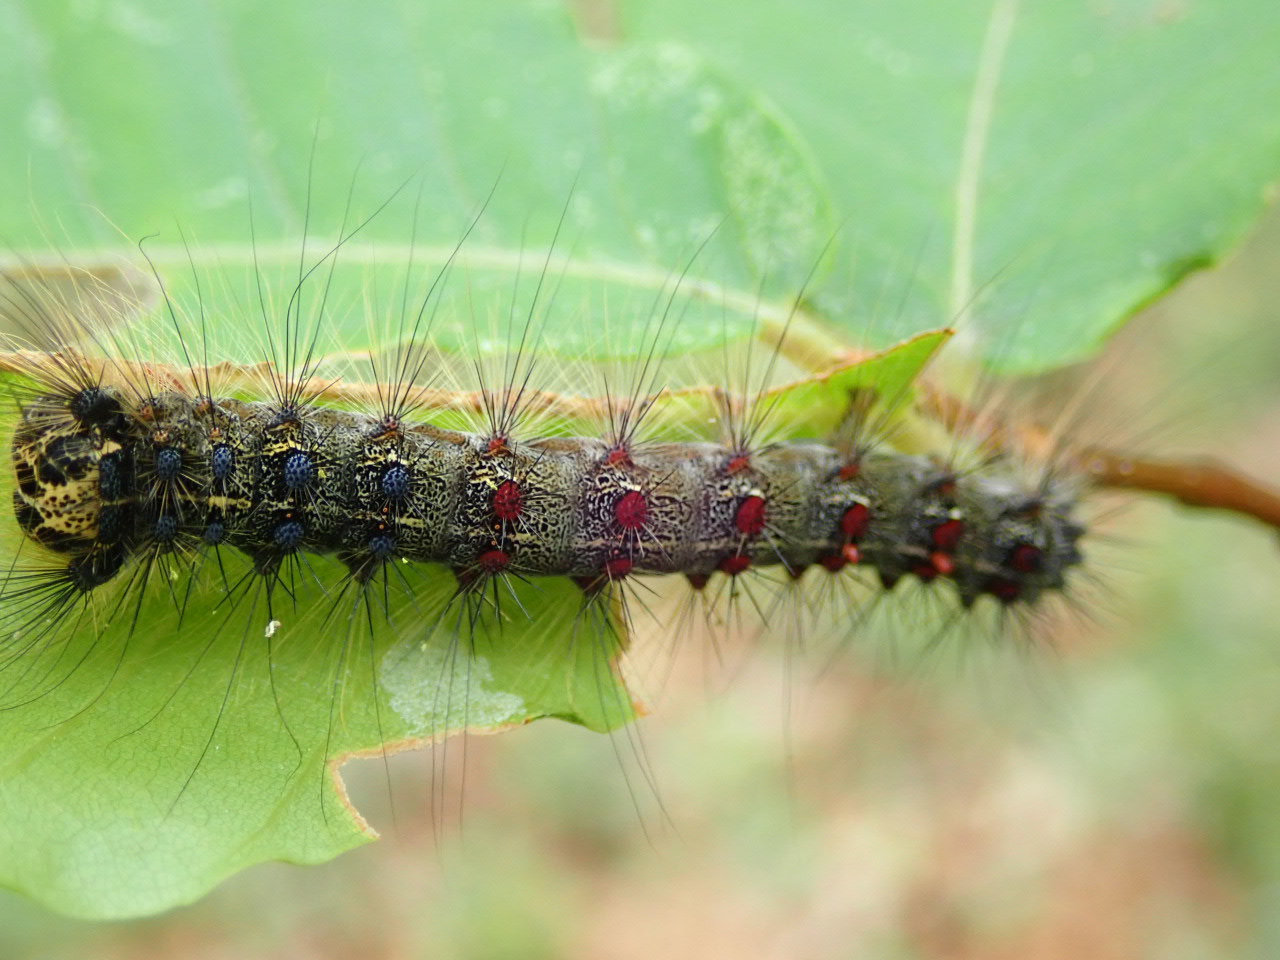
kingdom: Animalia
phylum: Arthropoda
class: Insecta
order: Lepidoptera
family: Erebidae
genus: Lymantria
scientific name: Lymantria dispar
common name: Gypsy moth
